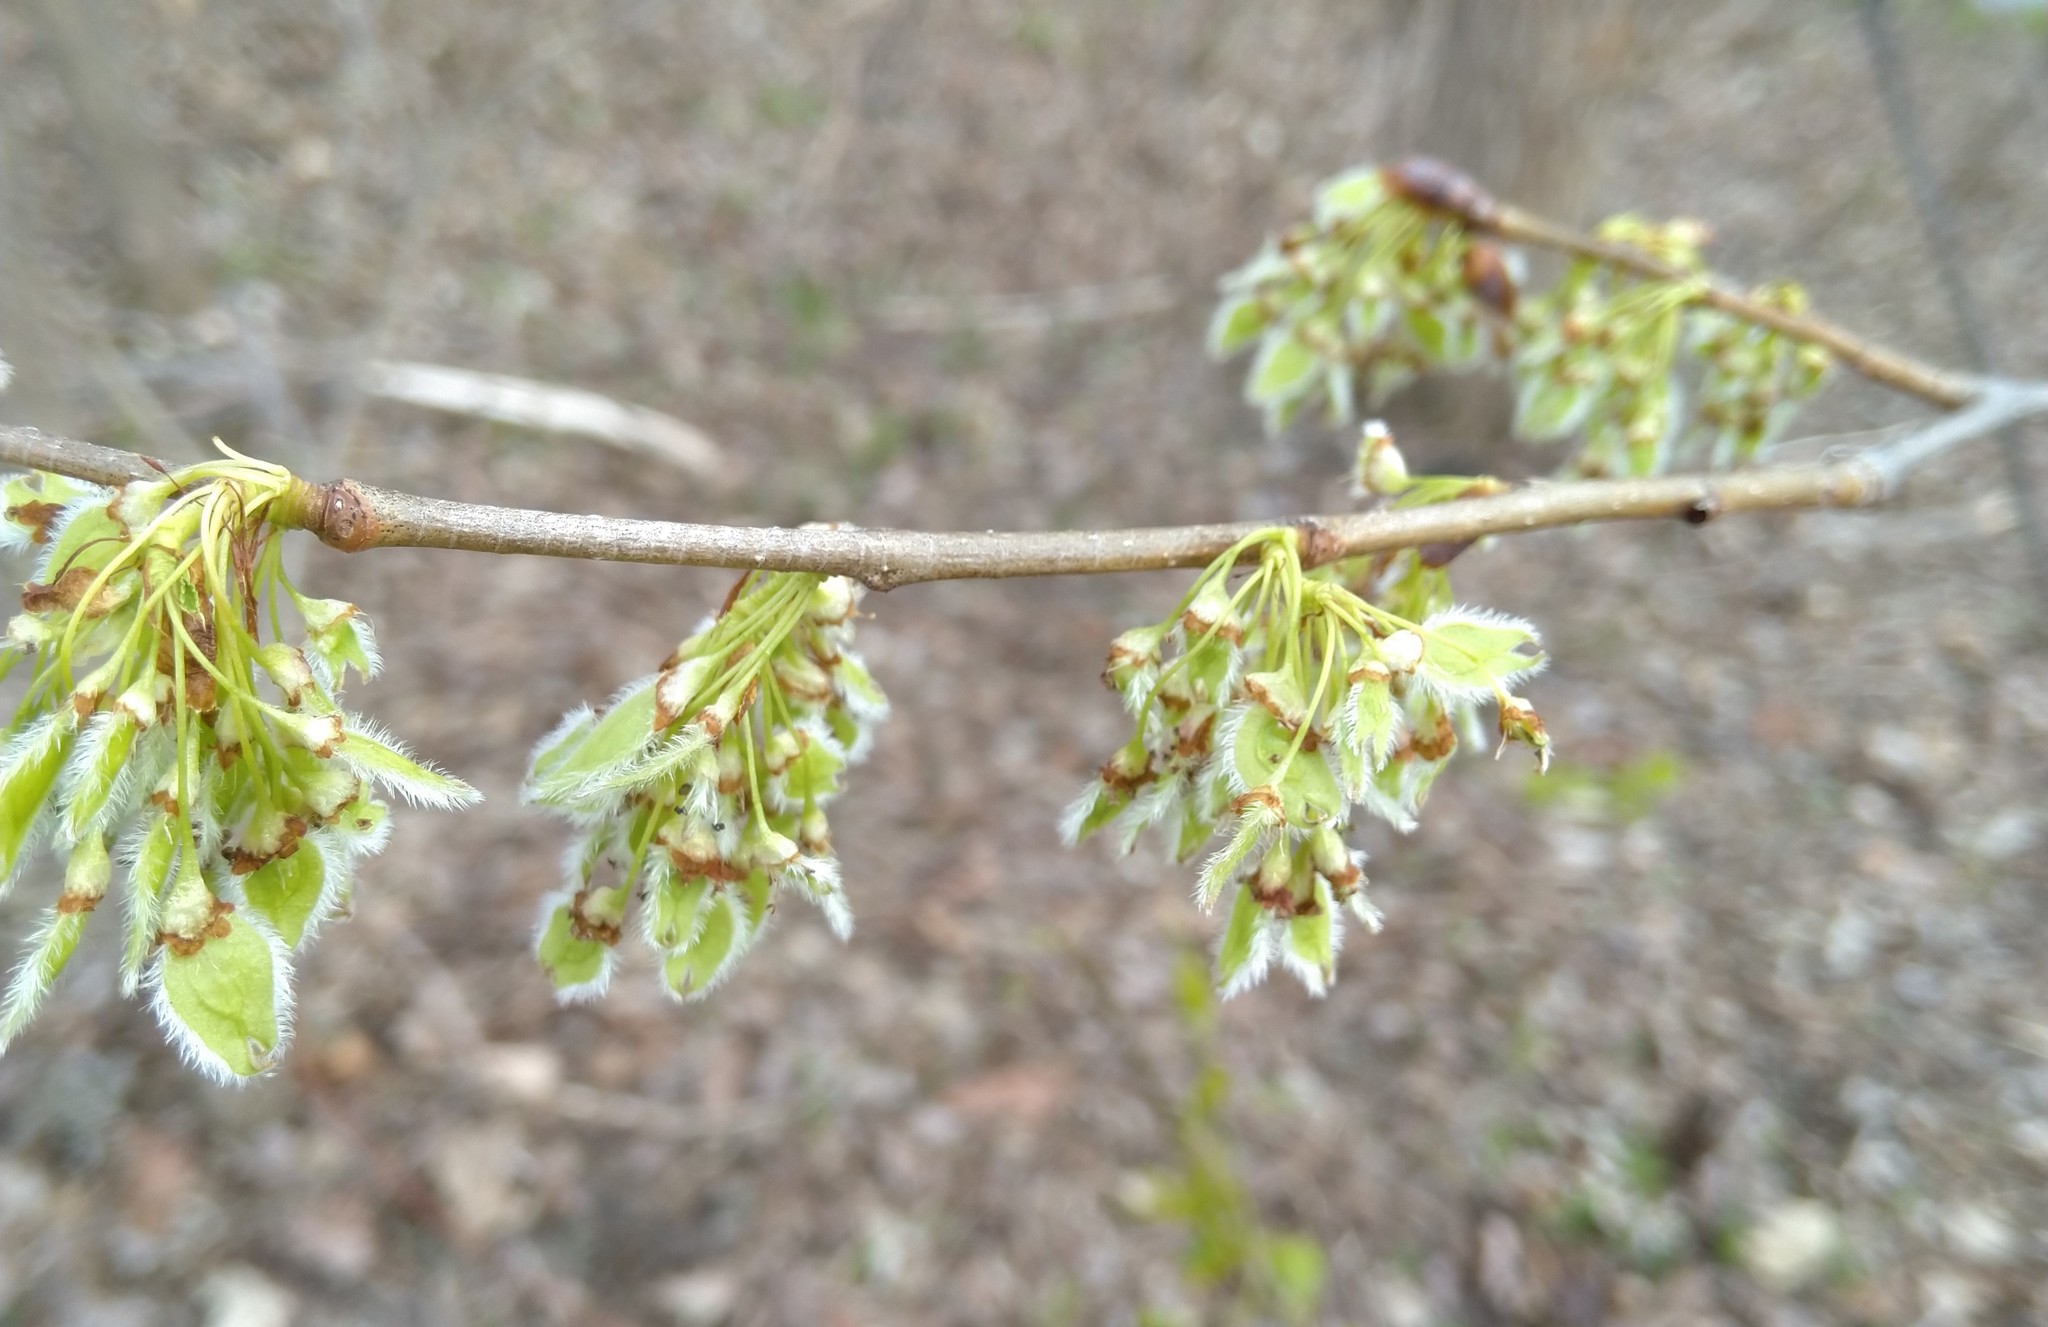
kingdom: Plantae
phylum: Tracheophyta
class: Magnoliopsida
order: Rosales
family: Ulmaceae
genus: Ulmus
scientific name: Ulmus americana
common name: American elm
